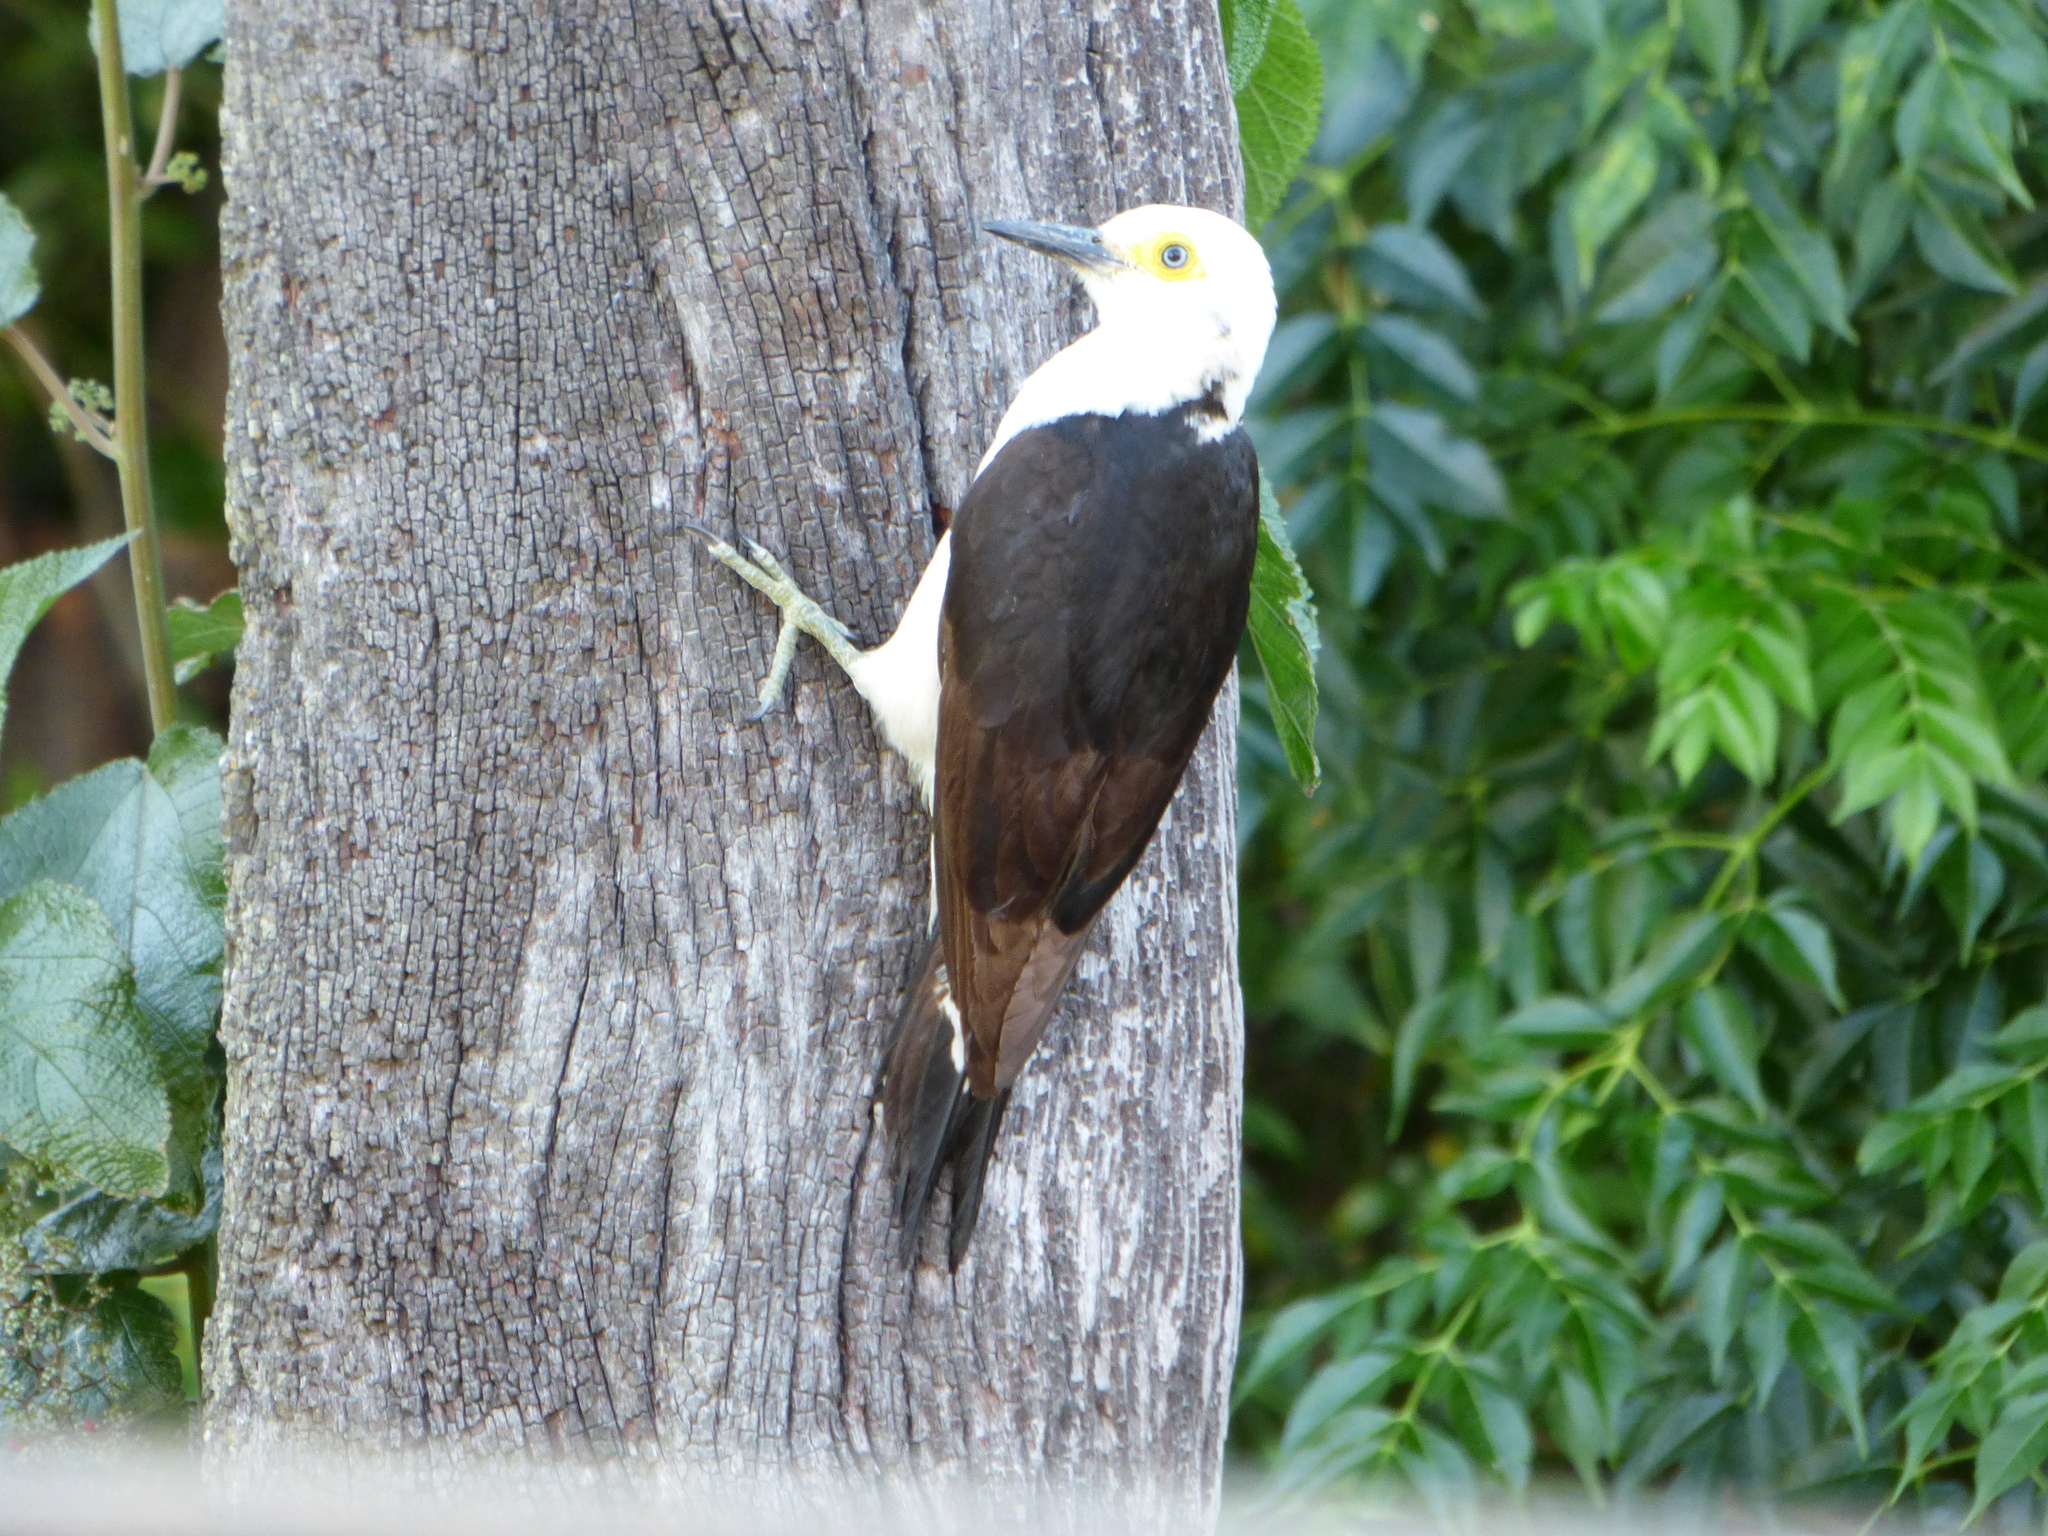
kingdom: Animalia
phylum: Chordata
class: Aves
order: Piciformes
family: Picidae
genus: Melanerpes
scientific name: Melanerpes candidus
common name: White woodpecker
